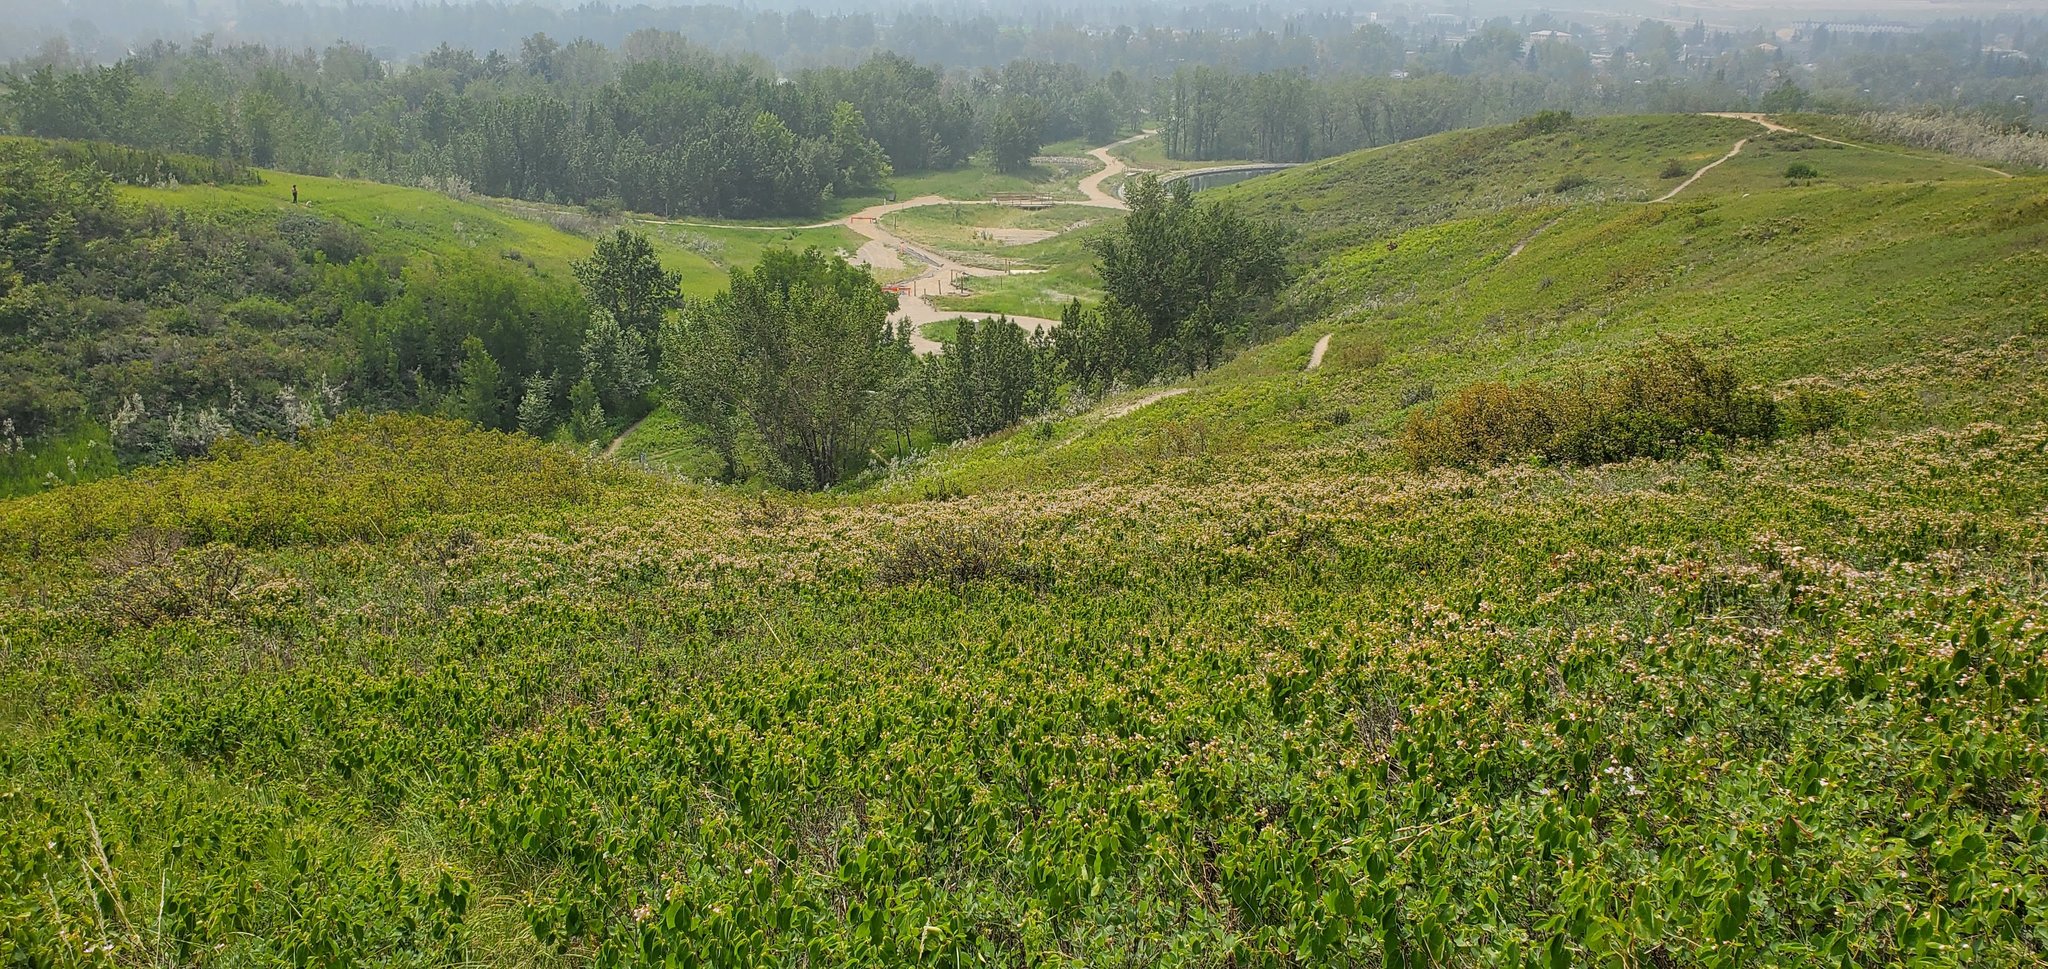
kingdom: Plantae
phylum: Tracheophyta
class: Magnoliopsida
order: Gentianales
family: Apocynaceae
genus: Apocynum
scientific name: Apocynum androsaemifolium
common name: Spreading dogbane
